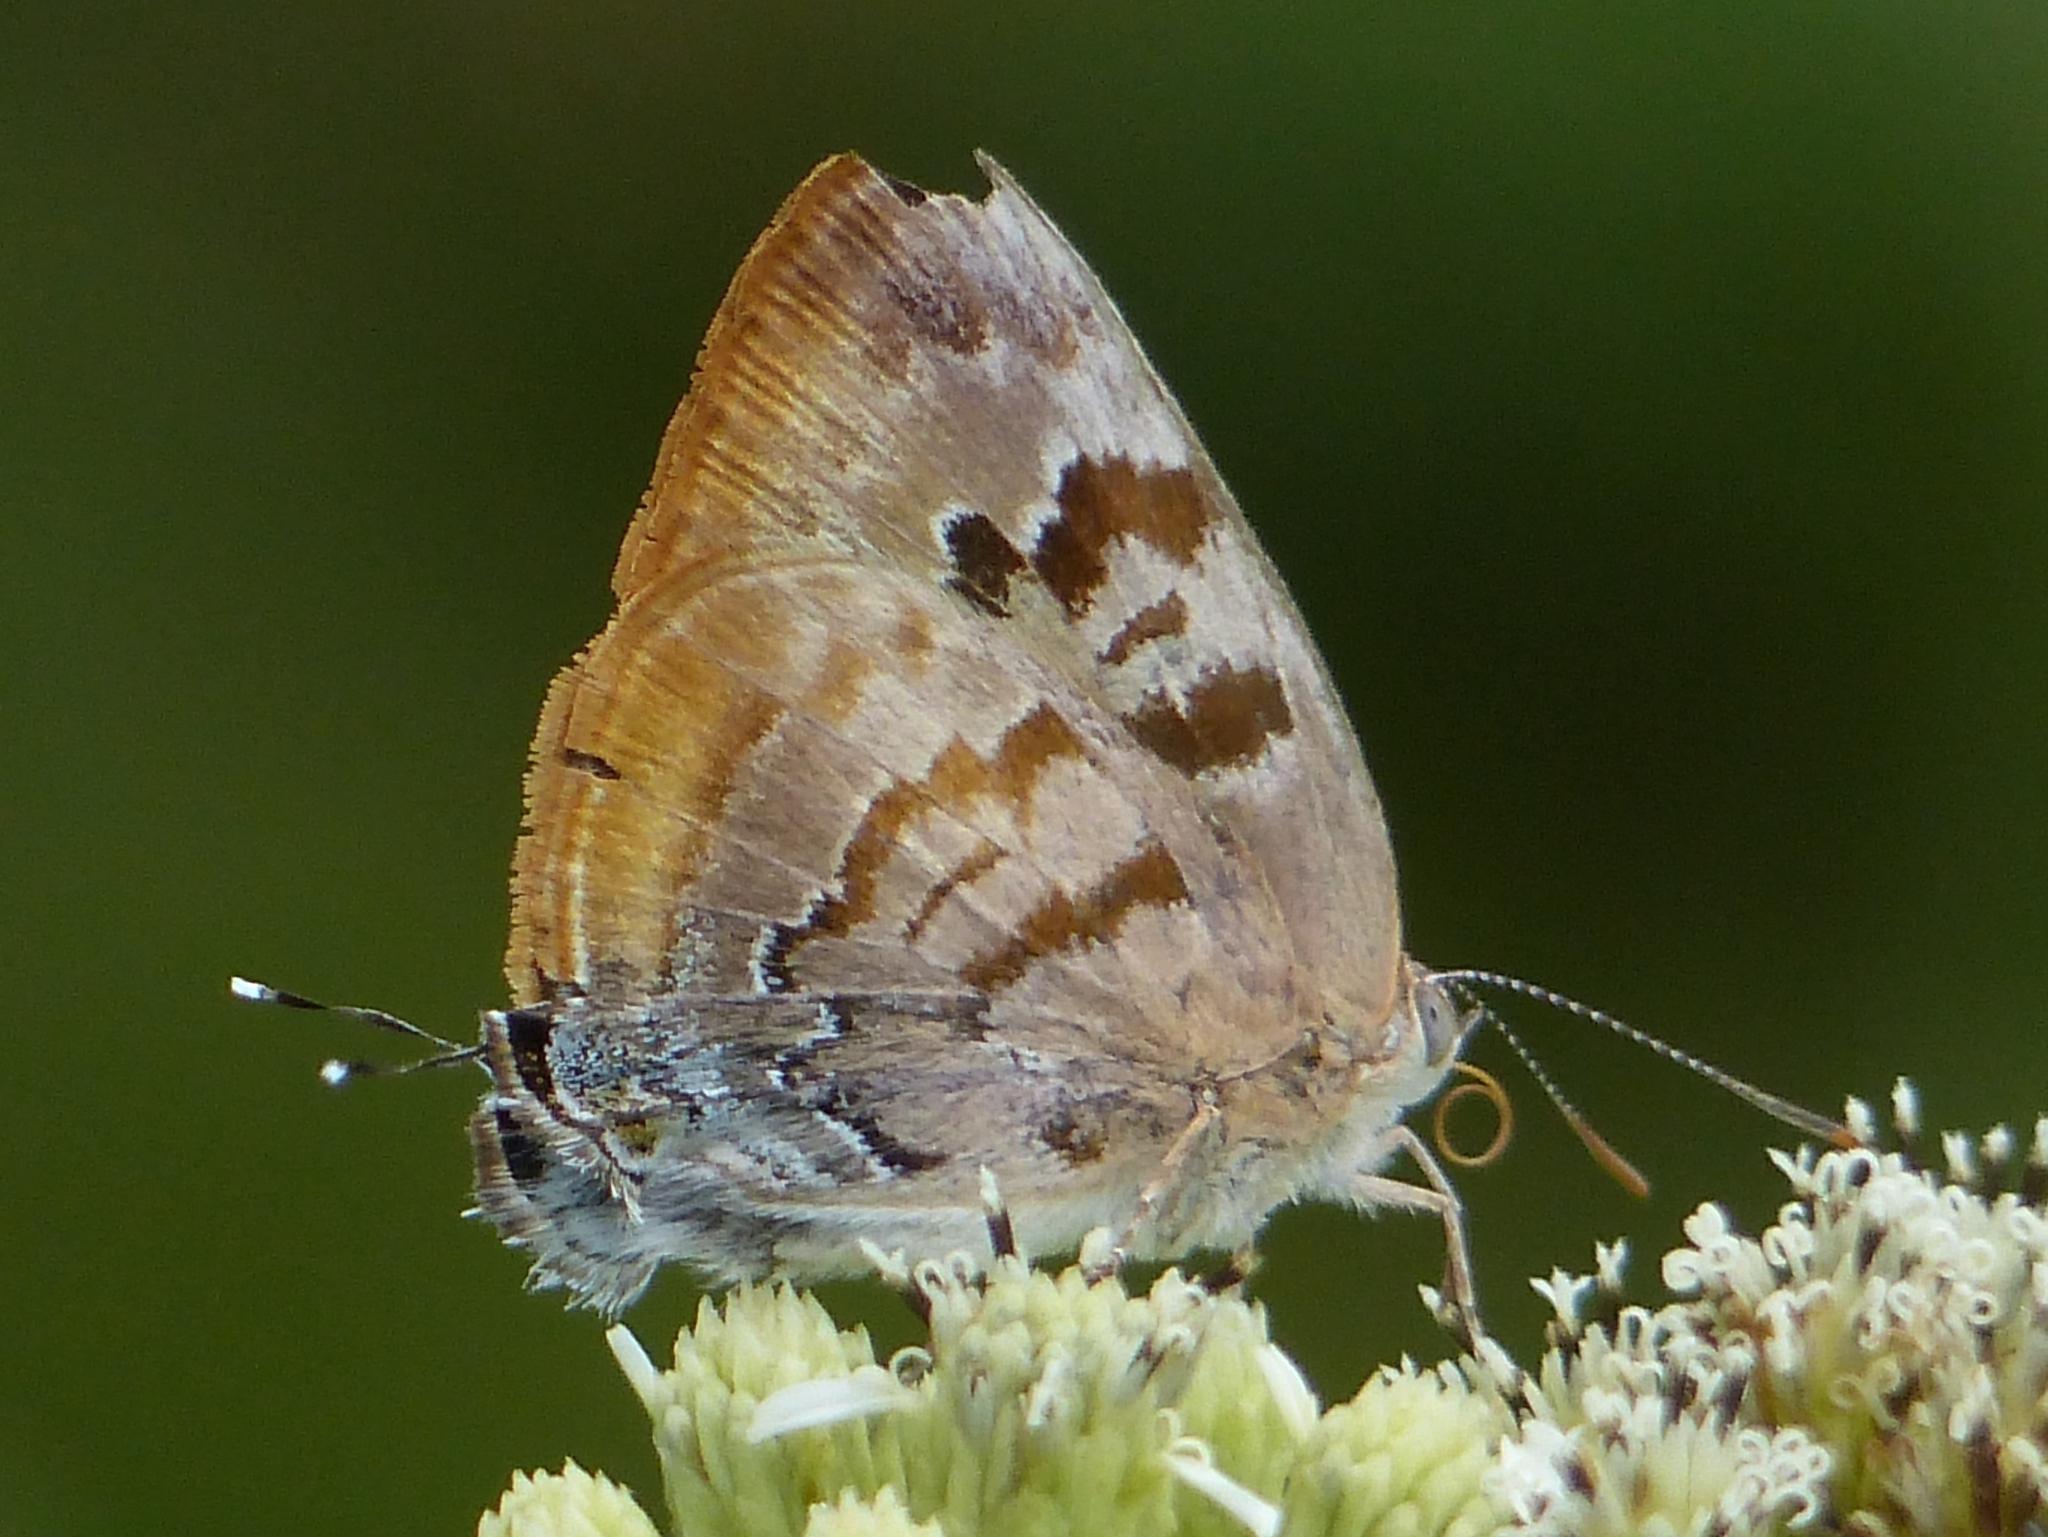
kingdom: Animalia
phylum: Arthropoda
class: Insecta
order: Lepidoptera
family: Lycaenidae
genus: Rekoa
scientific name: Rekoa palegon
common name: Gold-bordered hairstreak
